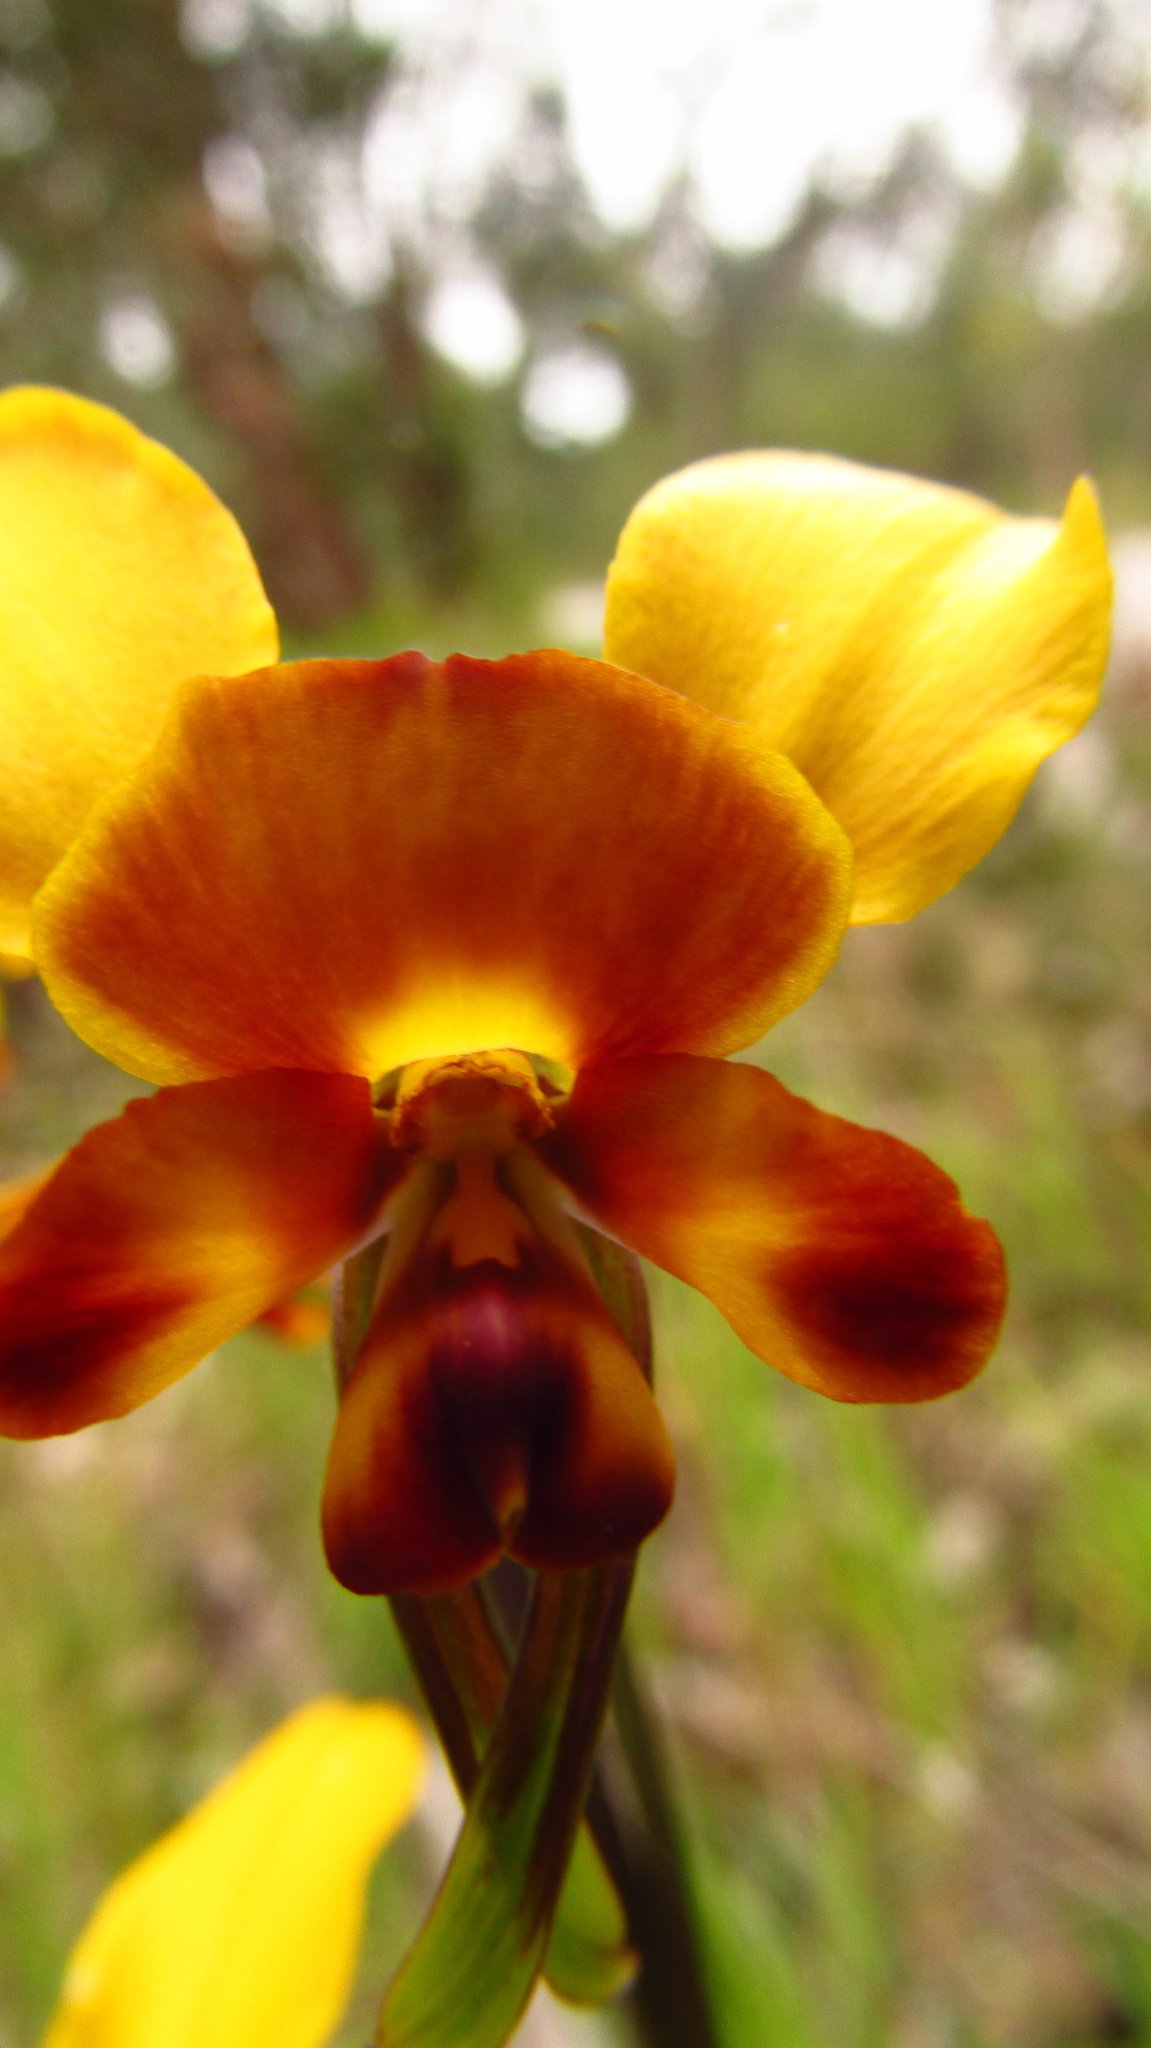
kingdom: Plantae
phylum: Tracheophyta
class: Liliopsida
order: Asparagales
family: Orchidaceae
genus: Diuris
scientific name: Diuris brumalis
